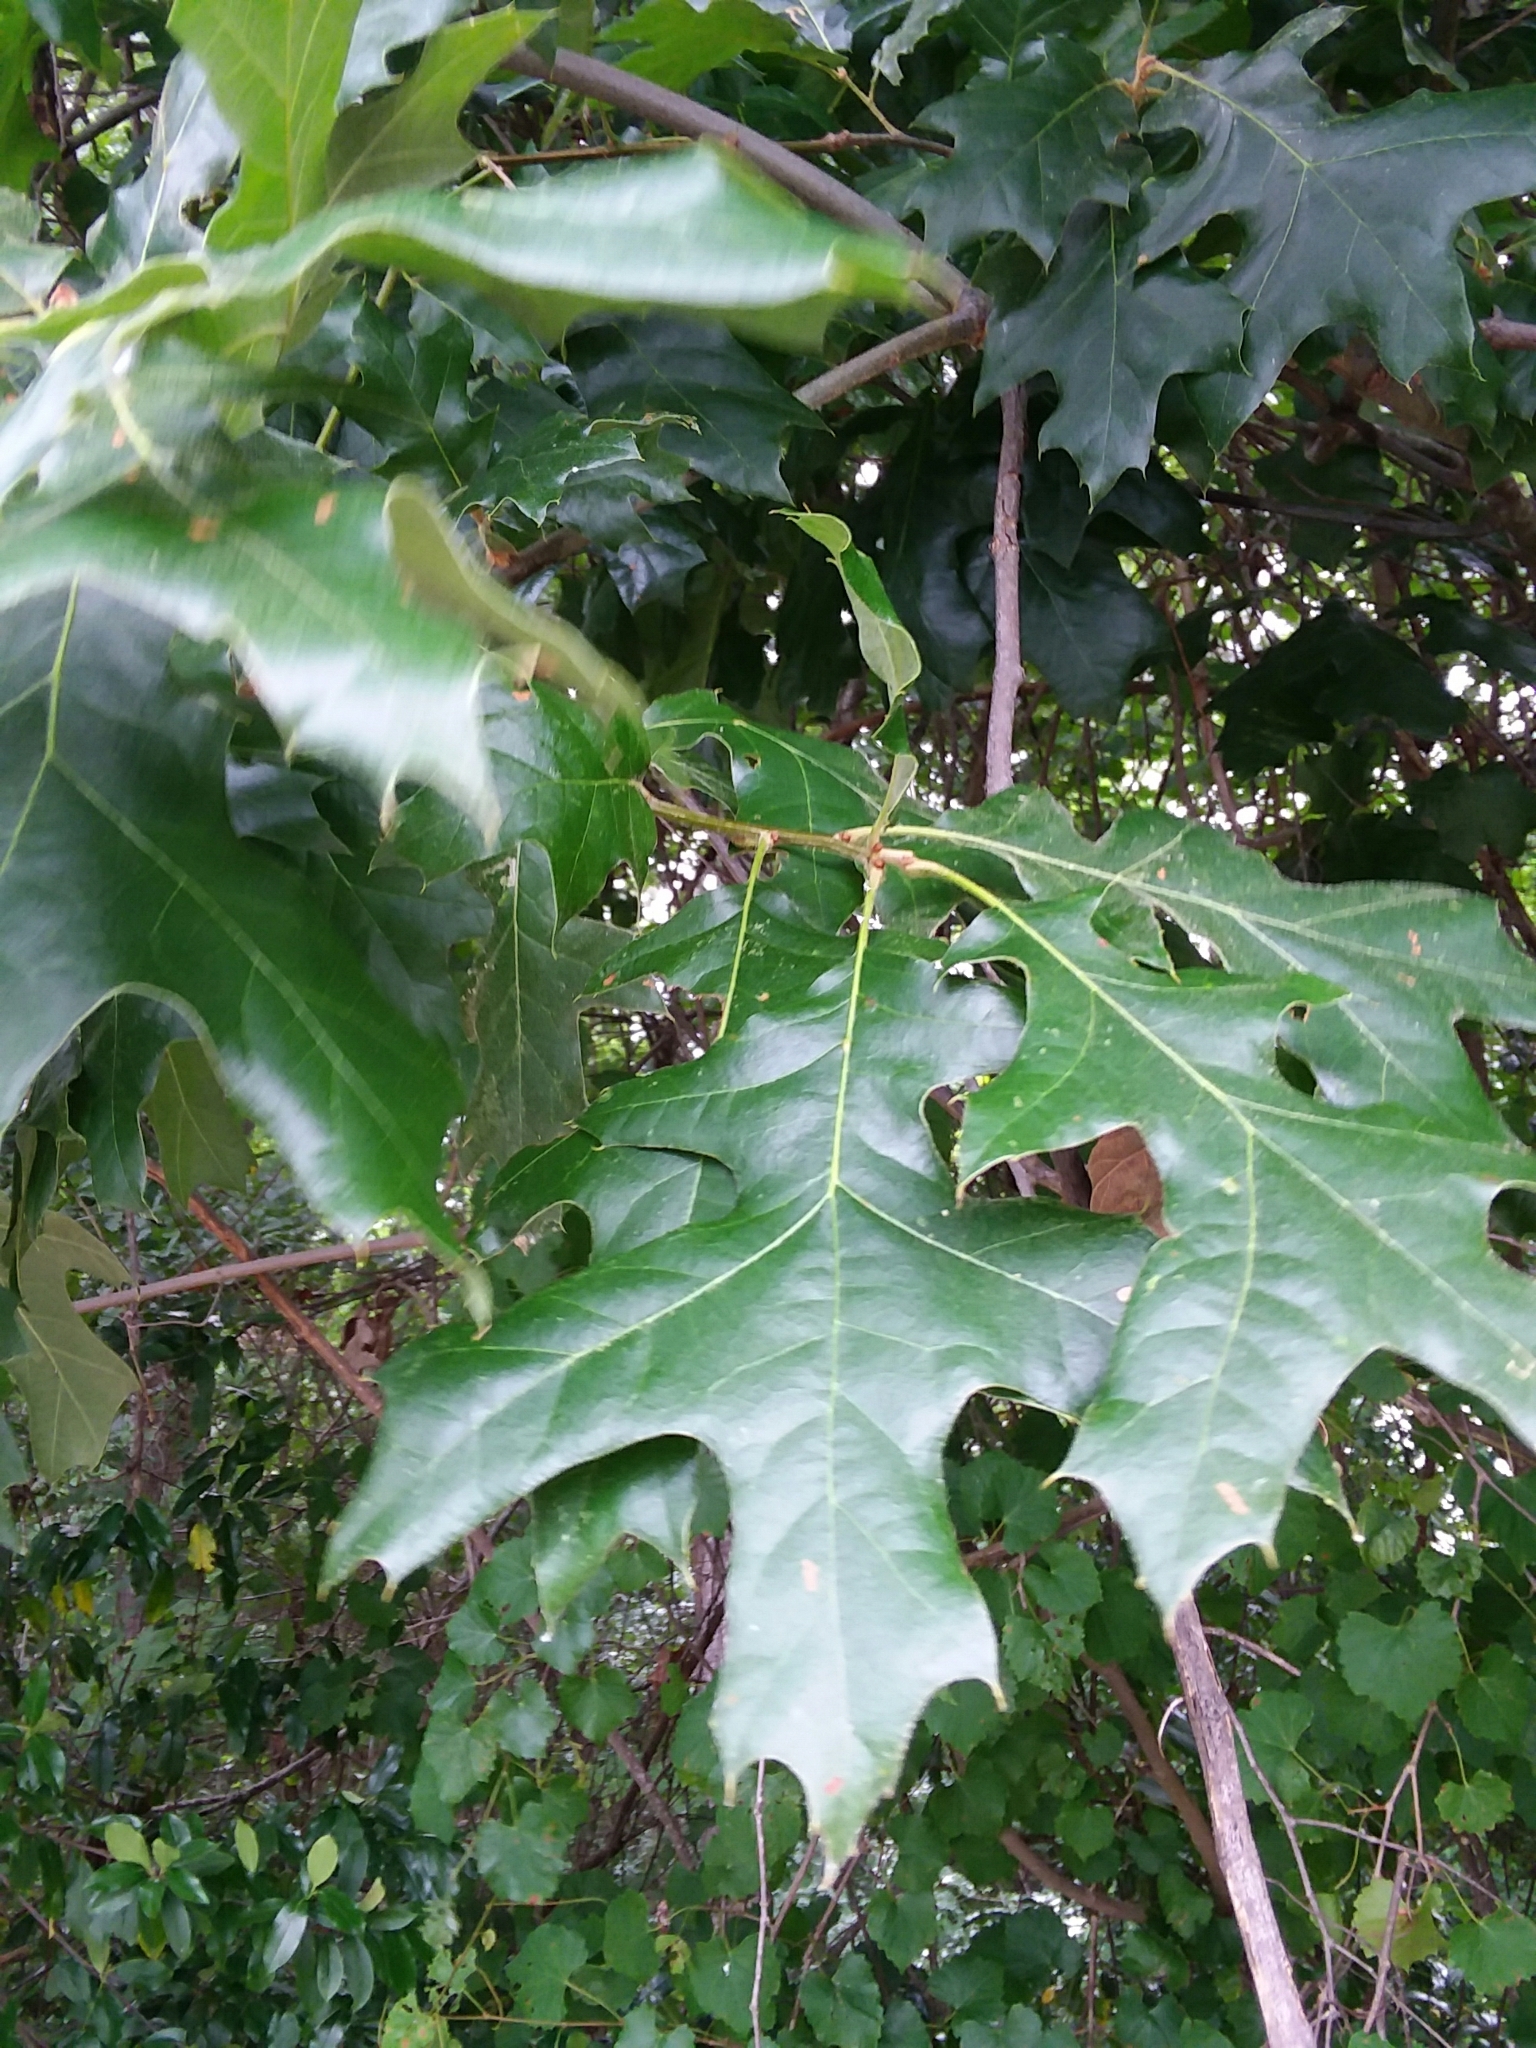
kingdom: Plantae
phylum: Tracheophyta
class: Magnoliopsida
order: Fagales
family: Fagaceae
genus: Quercus
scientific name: Quercus pagoda
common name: Cherrybark oak
